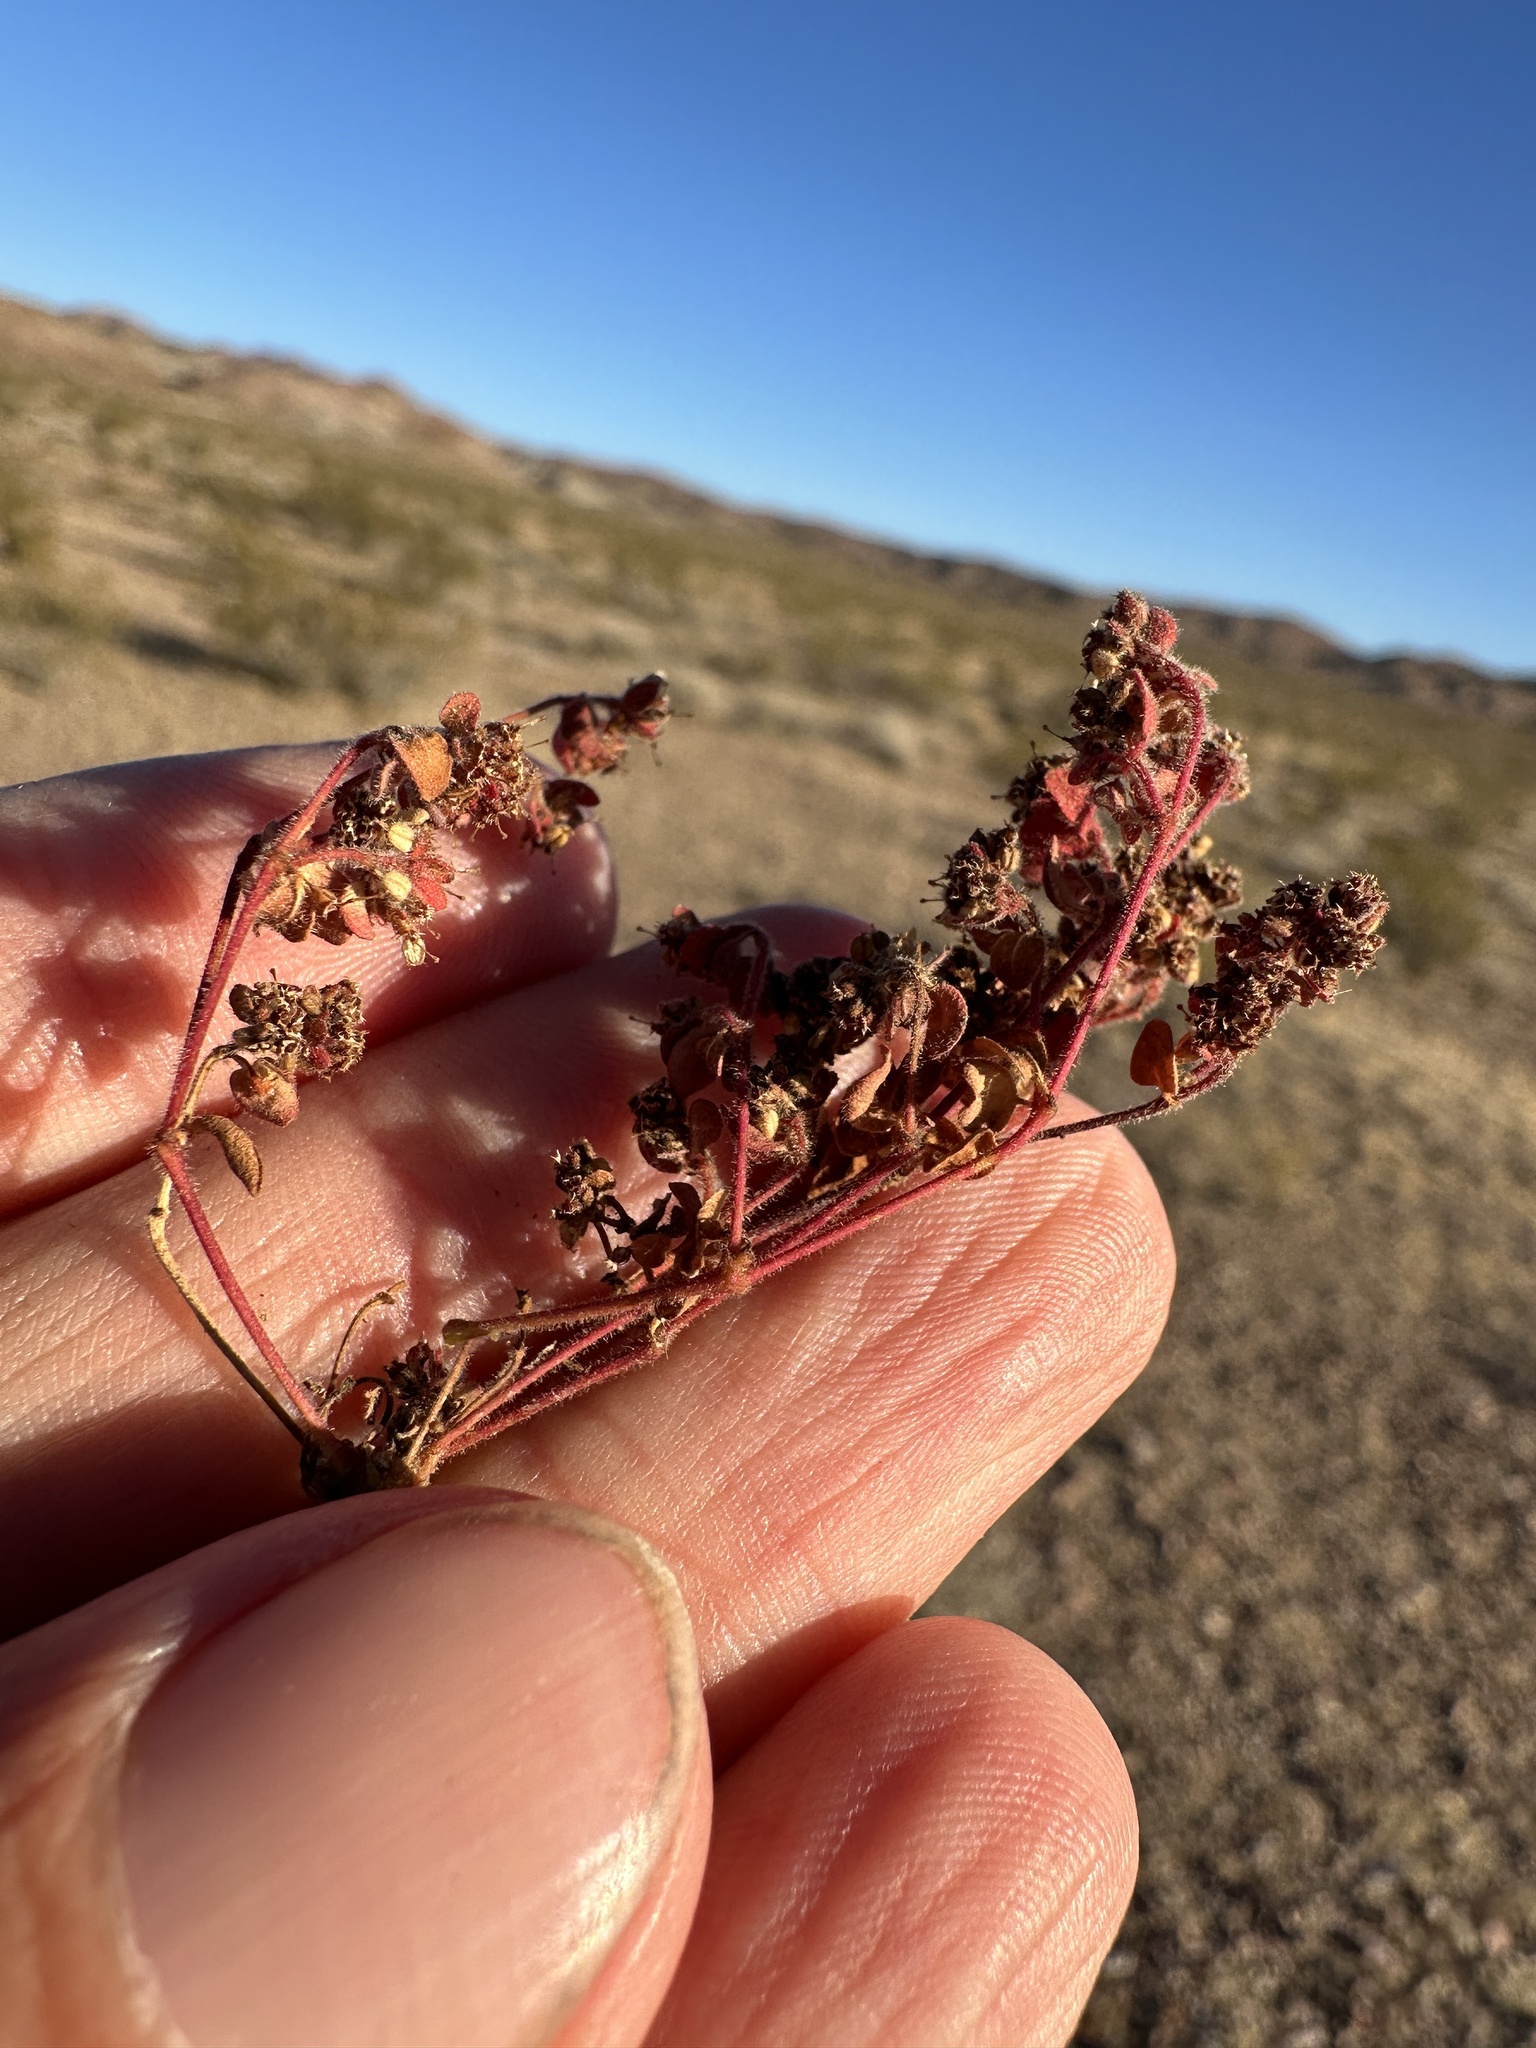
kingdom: Plantae
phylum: Tracheophyta
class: Magnoliopsida
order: Malpighiales
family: Euphorbiaceae
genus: Euphorbia
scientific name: Euphorbia setiloba
